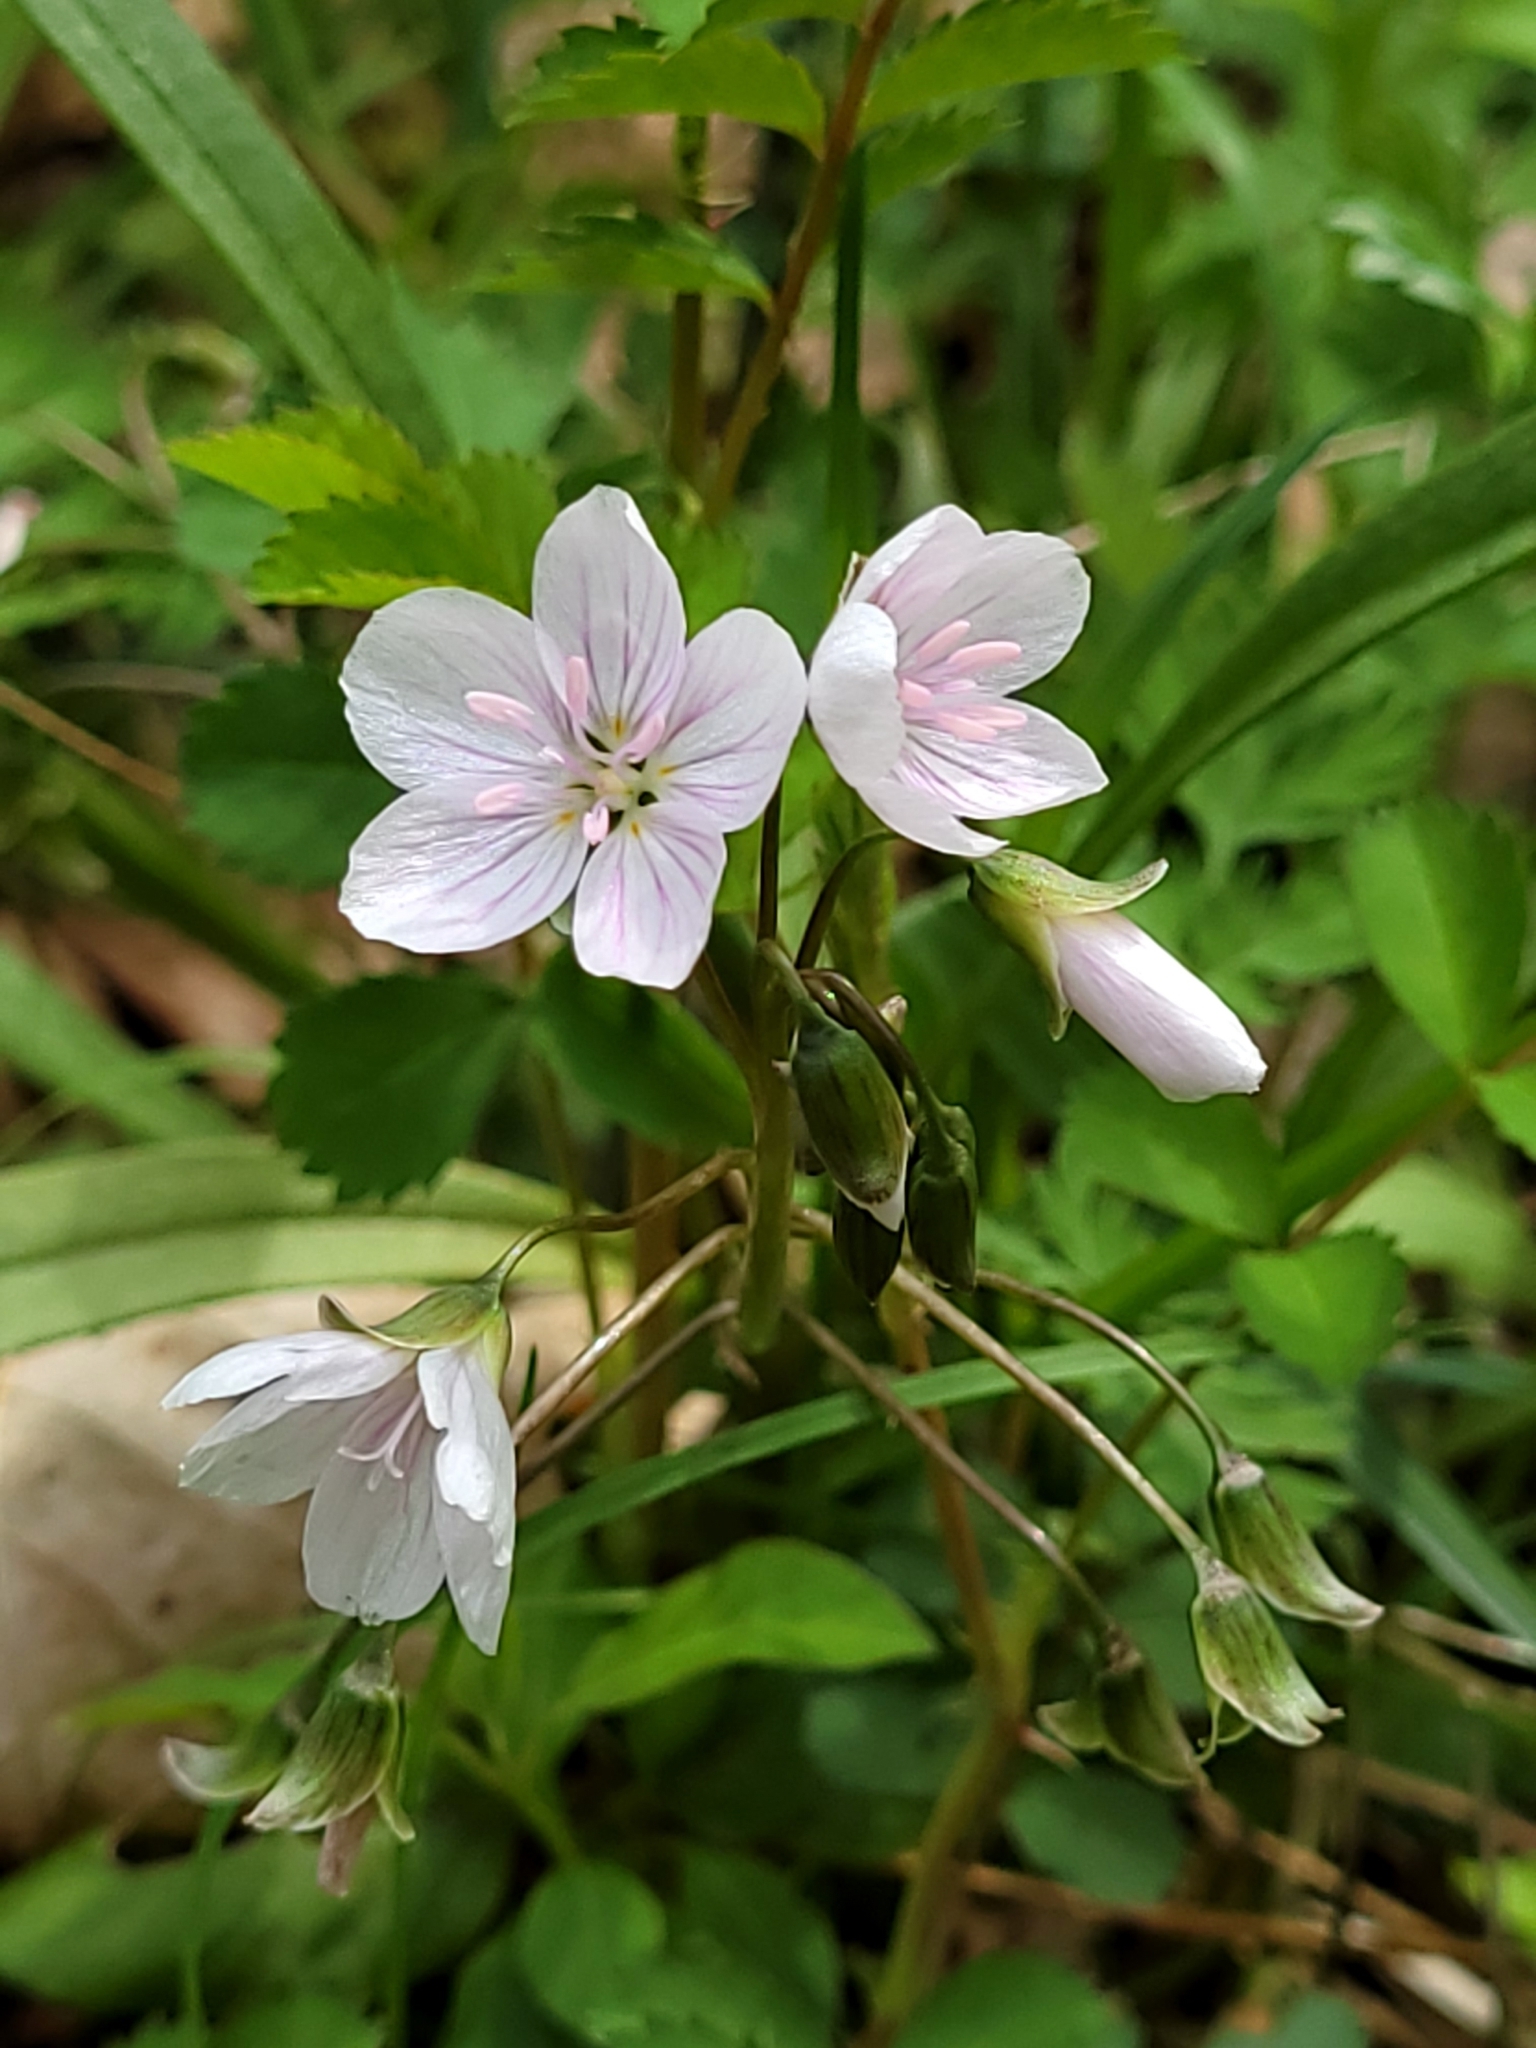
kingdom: Plantae
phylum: Tracheophyta
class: Magnoliopsida
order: Caryophyllales
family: Montiaceae
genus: Claytonia
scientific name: Claytonia virginica
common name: Virginia springbeauty
